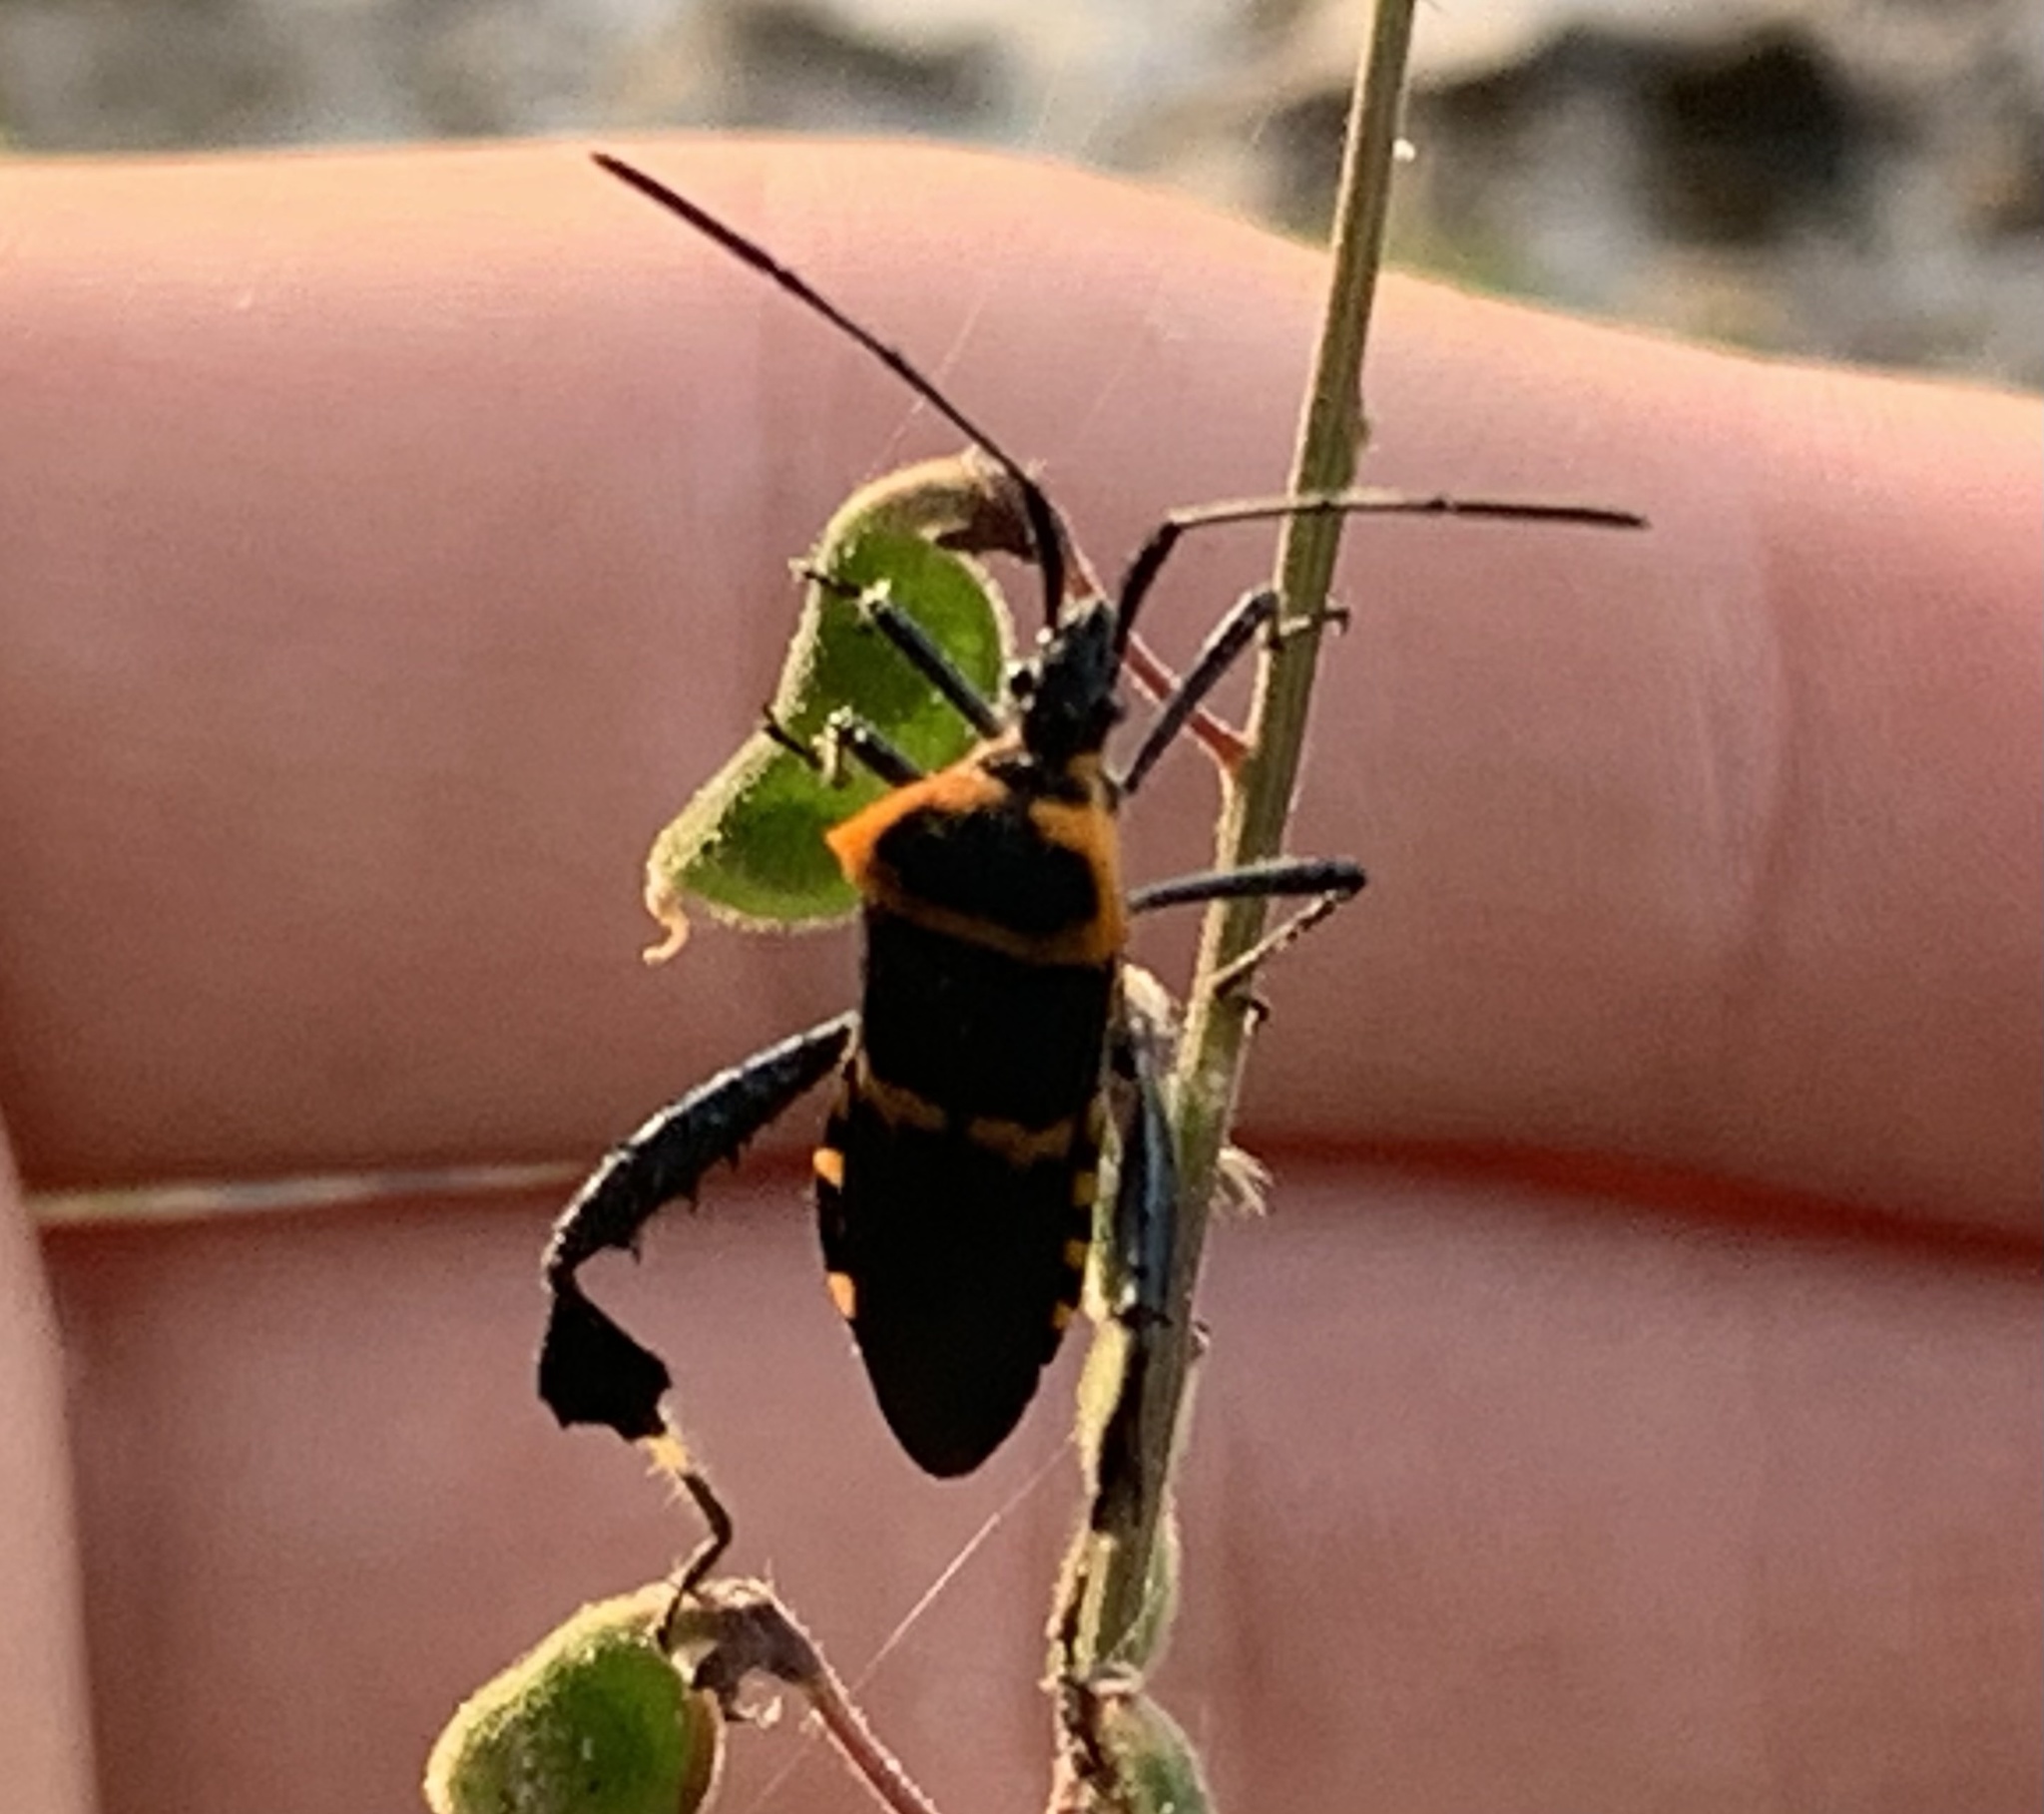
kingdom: Animalia
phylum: Arthropoda
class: Insecta
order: Hemiptera
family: Coreidae
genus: Leptoglossus
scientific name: Leptoglossus ashmeadi
